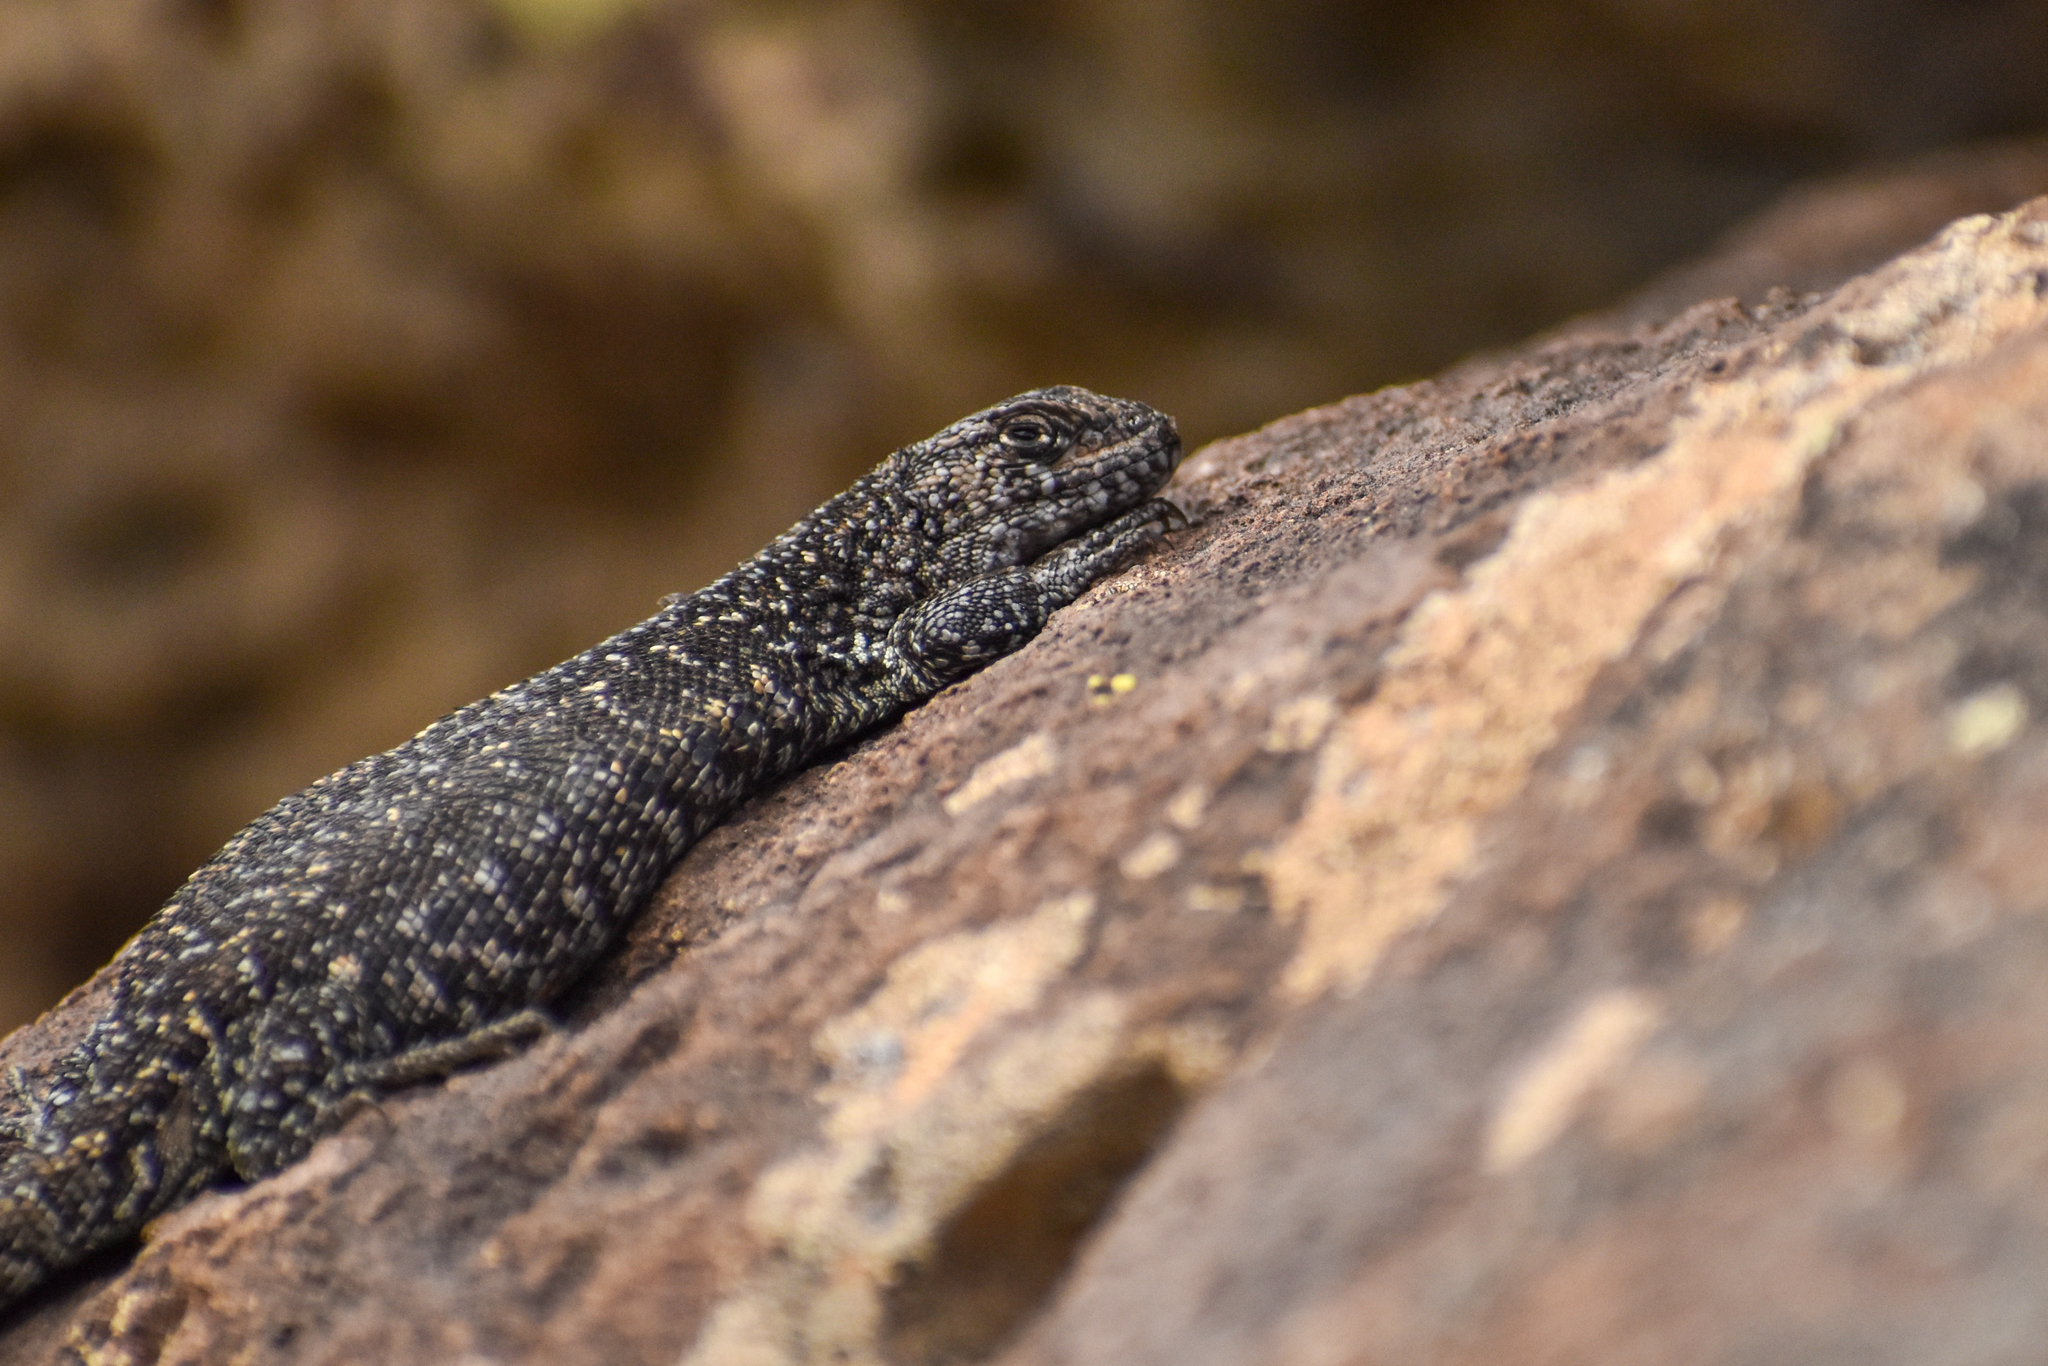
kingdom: Animalia
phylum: Chordata
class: Squamata
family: Liolaemidae
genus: Liolaemus
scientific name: Liolaemus silvanae
